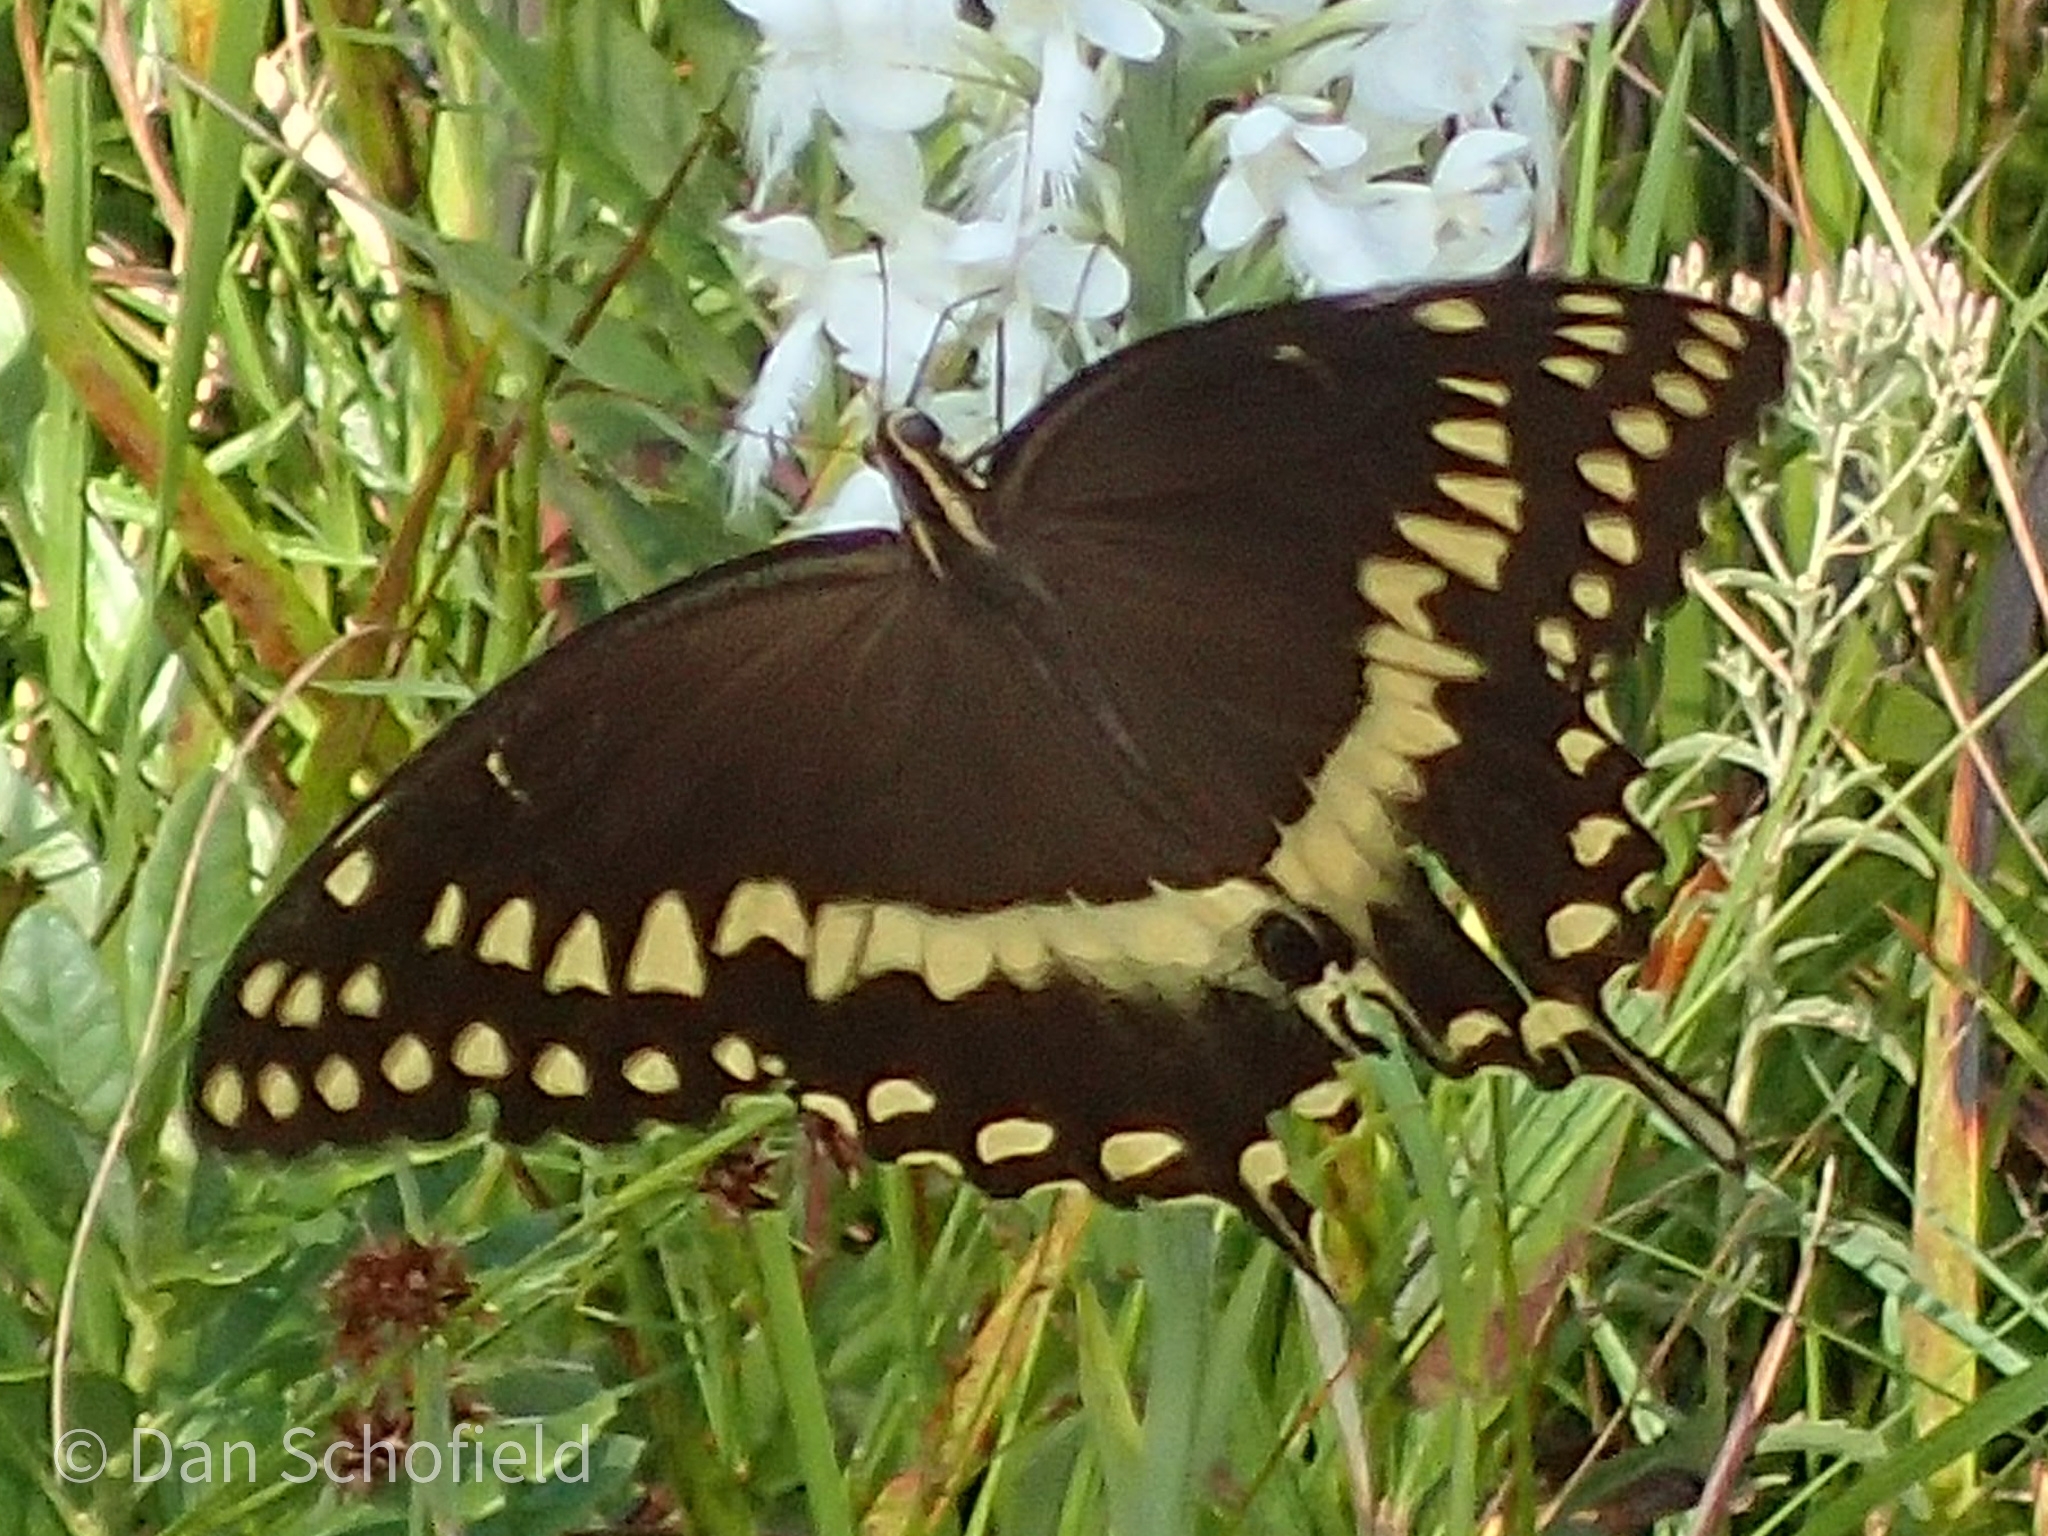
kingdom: Animalia
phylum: Arthropoda
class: Insecta
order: Lepidoptera
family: Papilionidae
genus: Papilio
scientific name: Papilio palamedes
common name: Palamedes swallowtail
